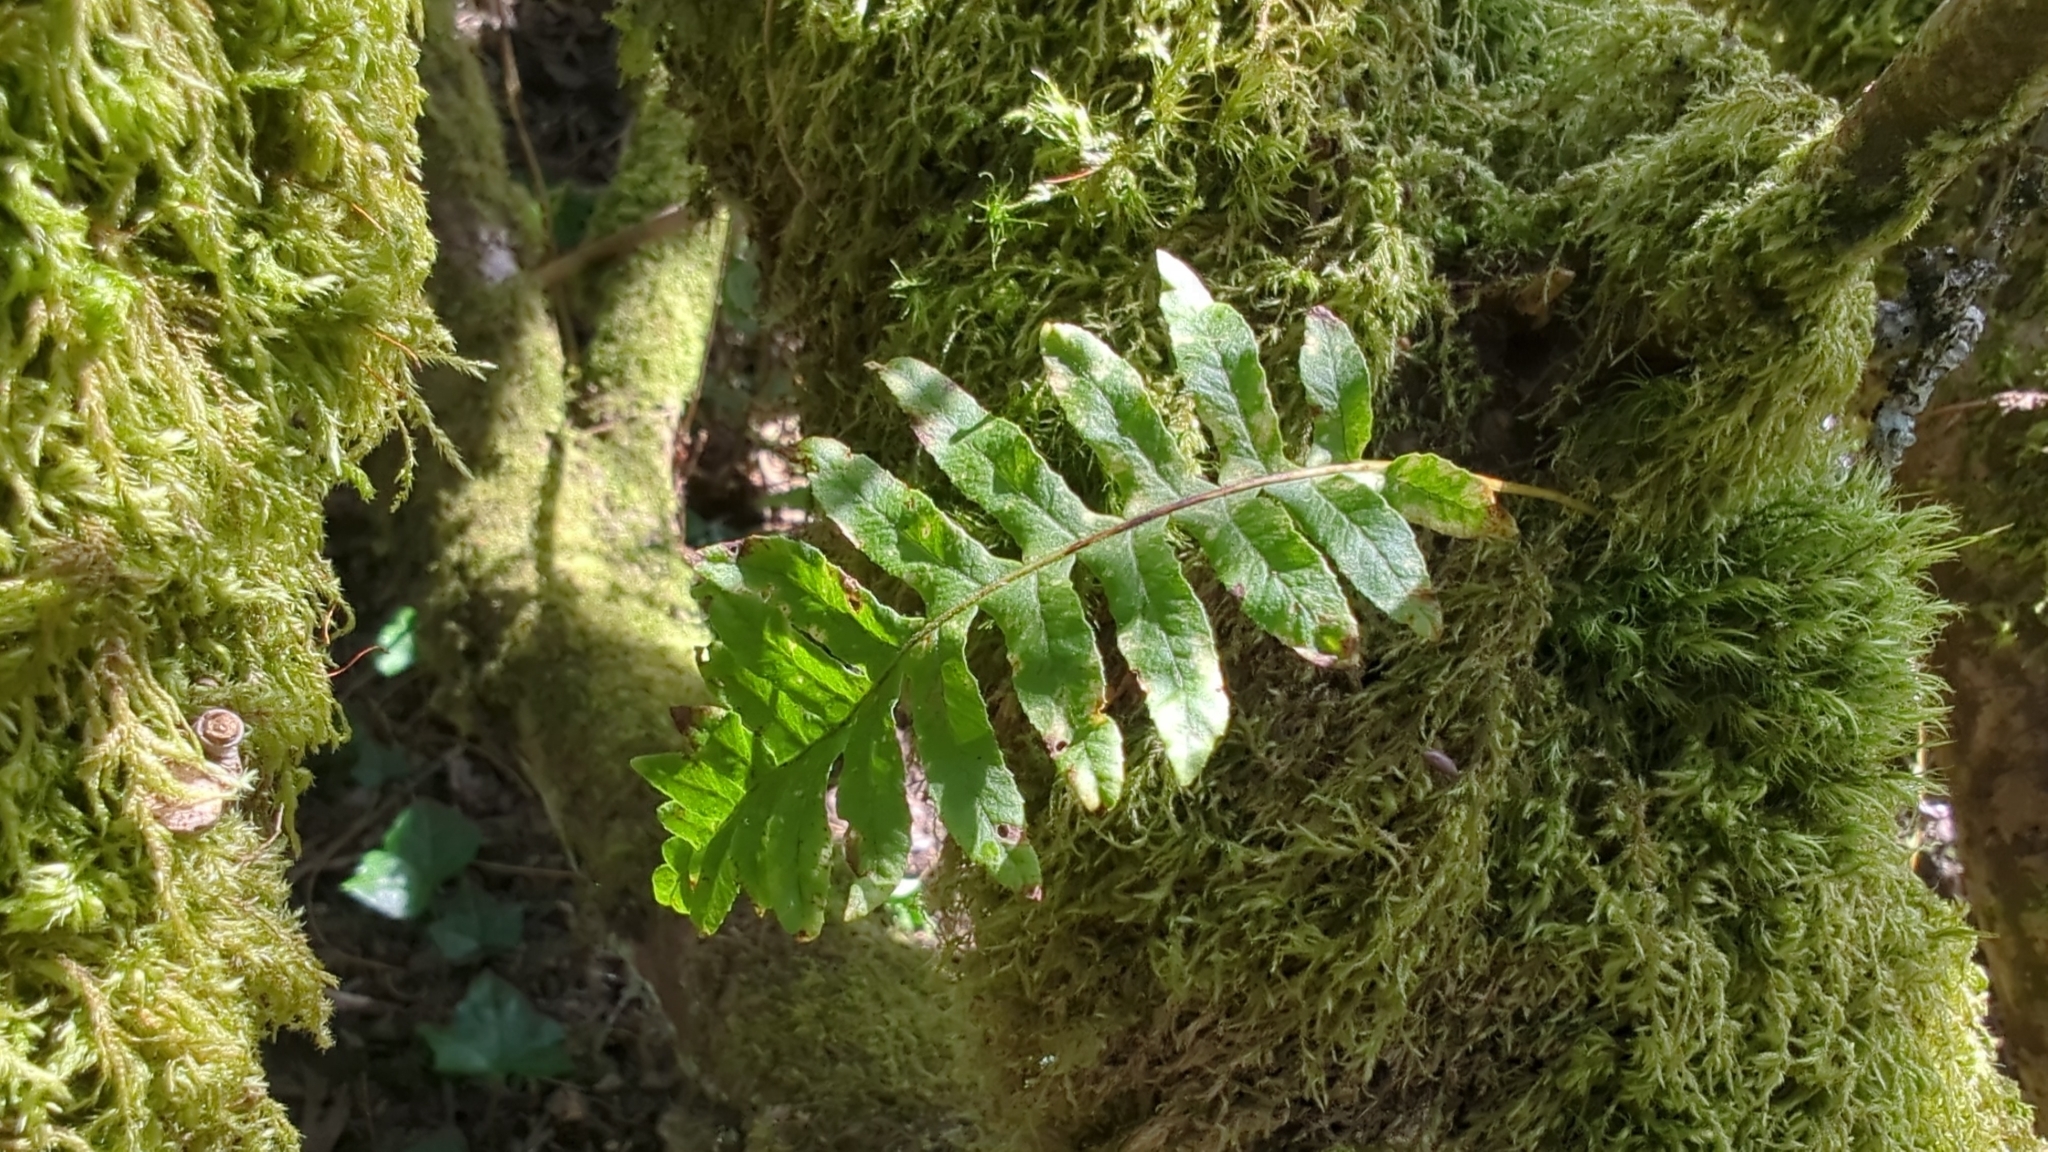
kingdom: Plantae
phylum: Tracheophyta
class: Polypodiopsida
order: Polypodiales
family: Polypodiaceae
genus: Polypodium
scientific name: Polypodium glycyrrhiza
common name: Licorice fern
